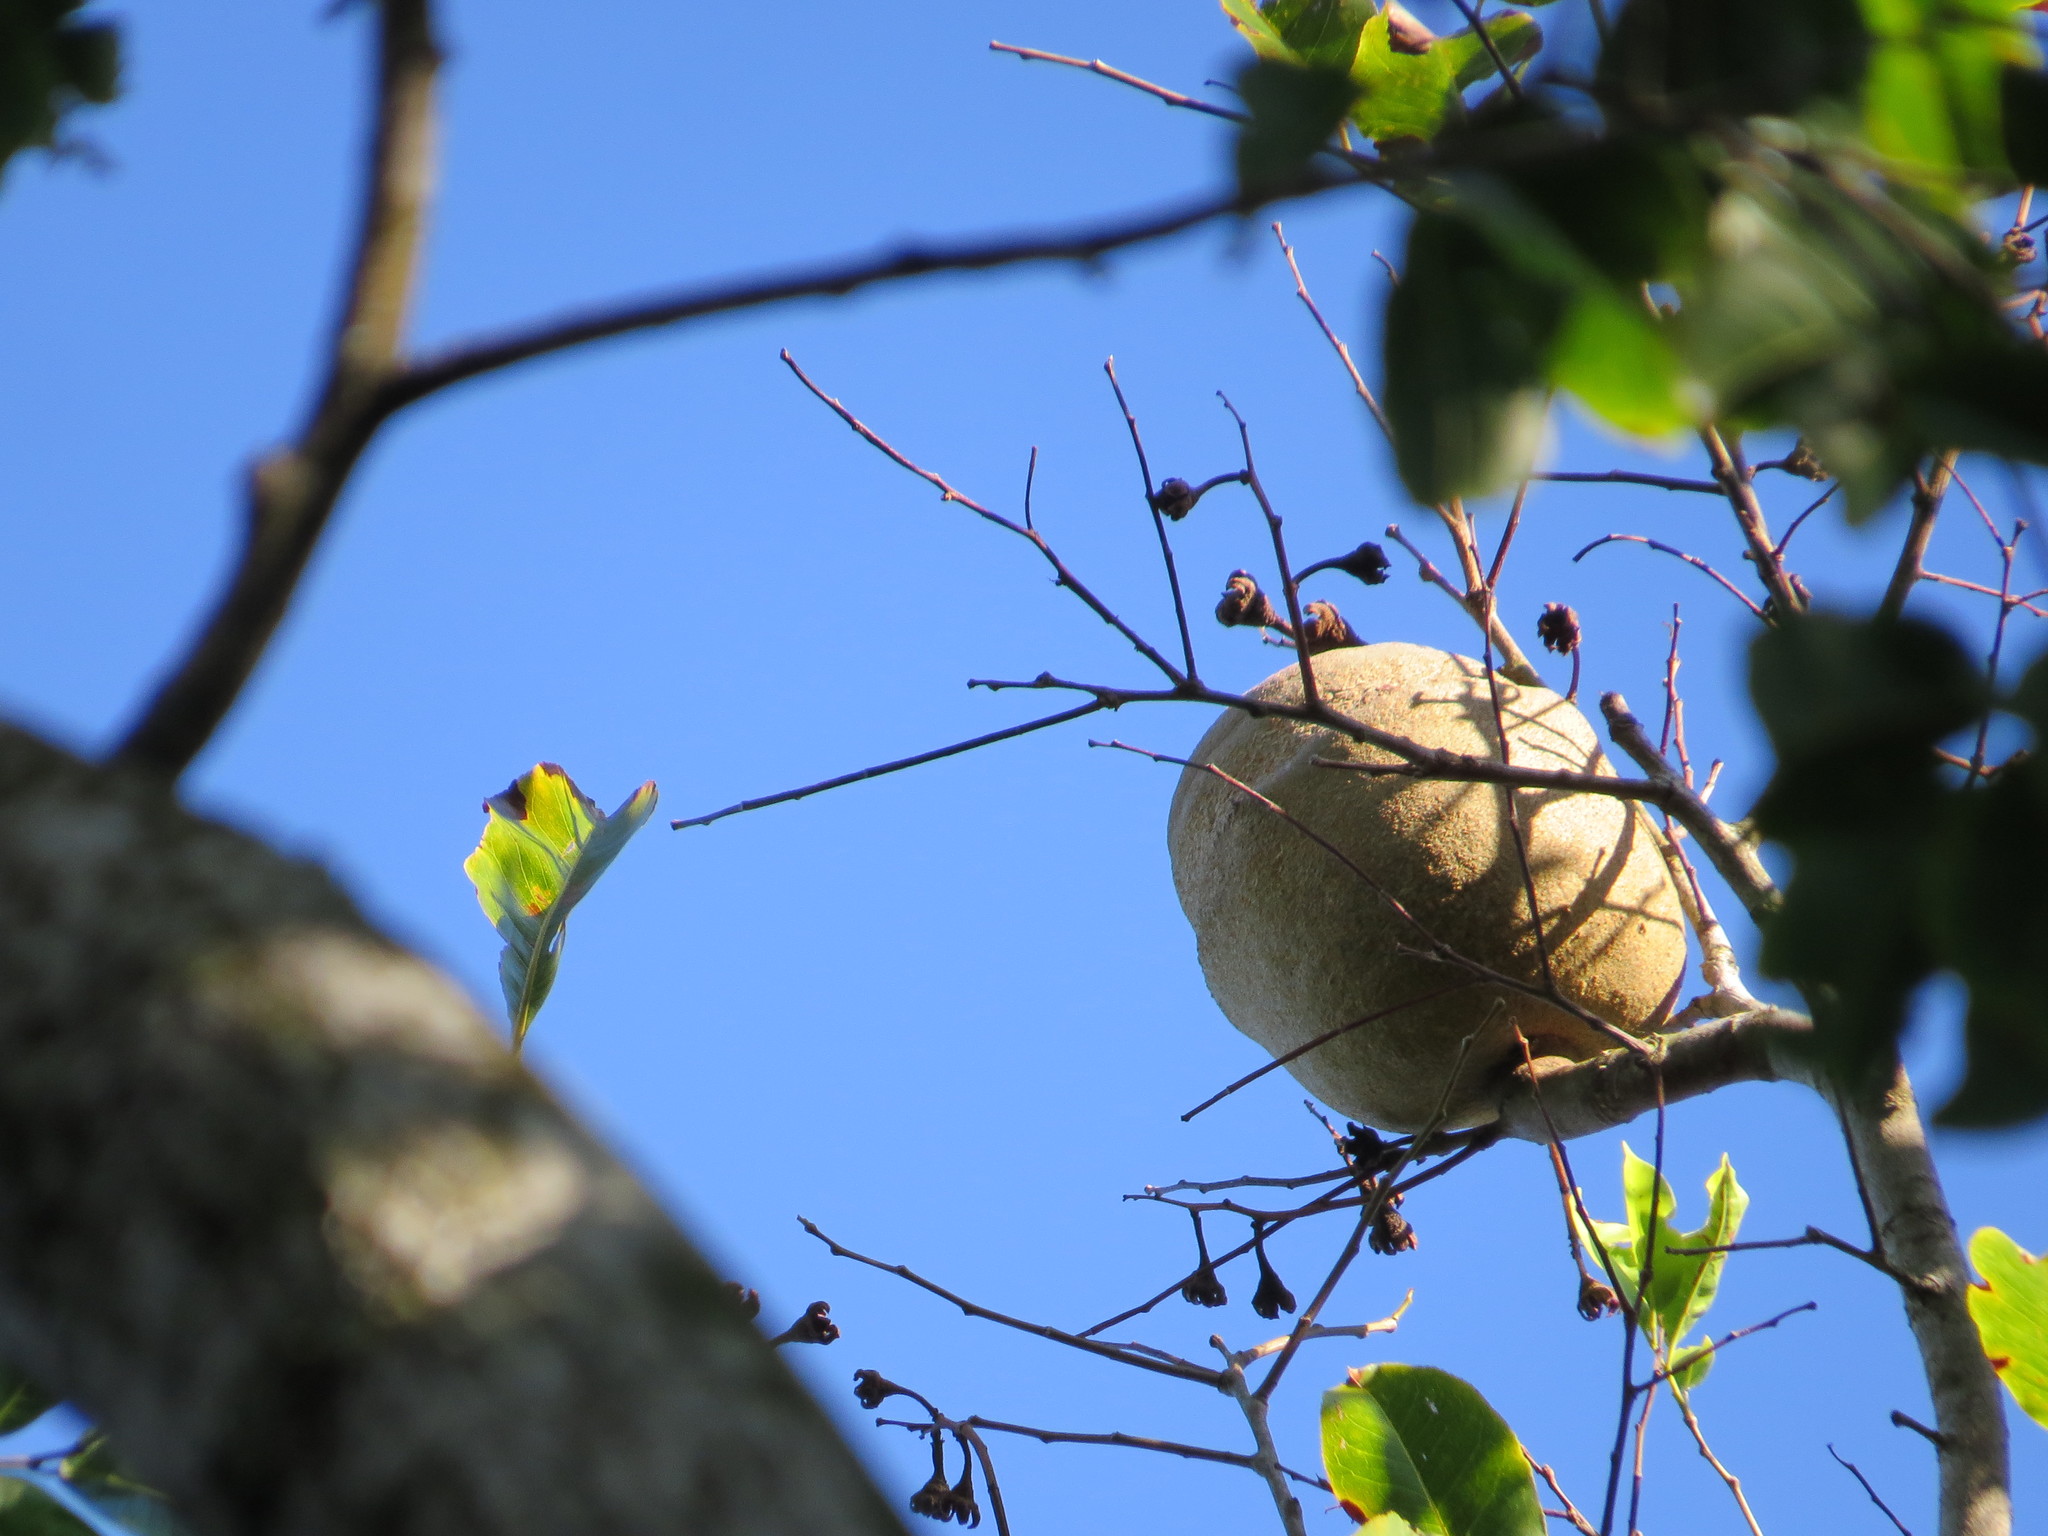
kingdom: Plantae
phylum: Tracheophyta
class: Magnoliopsida
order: Ericales
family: Lecythidaceae
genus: Lecythis
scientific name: Lecythis pisonis
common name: Paradise-nut
